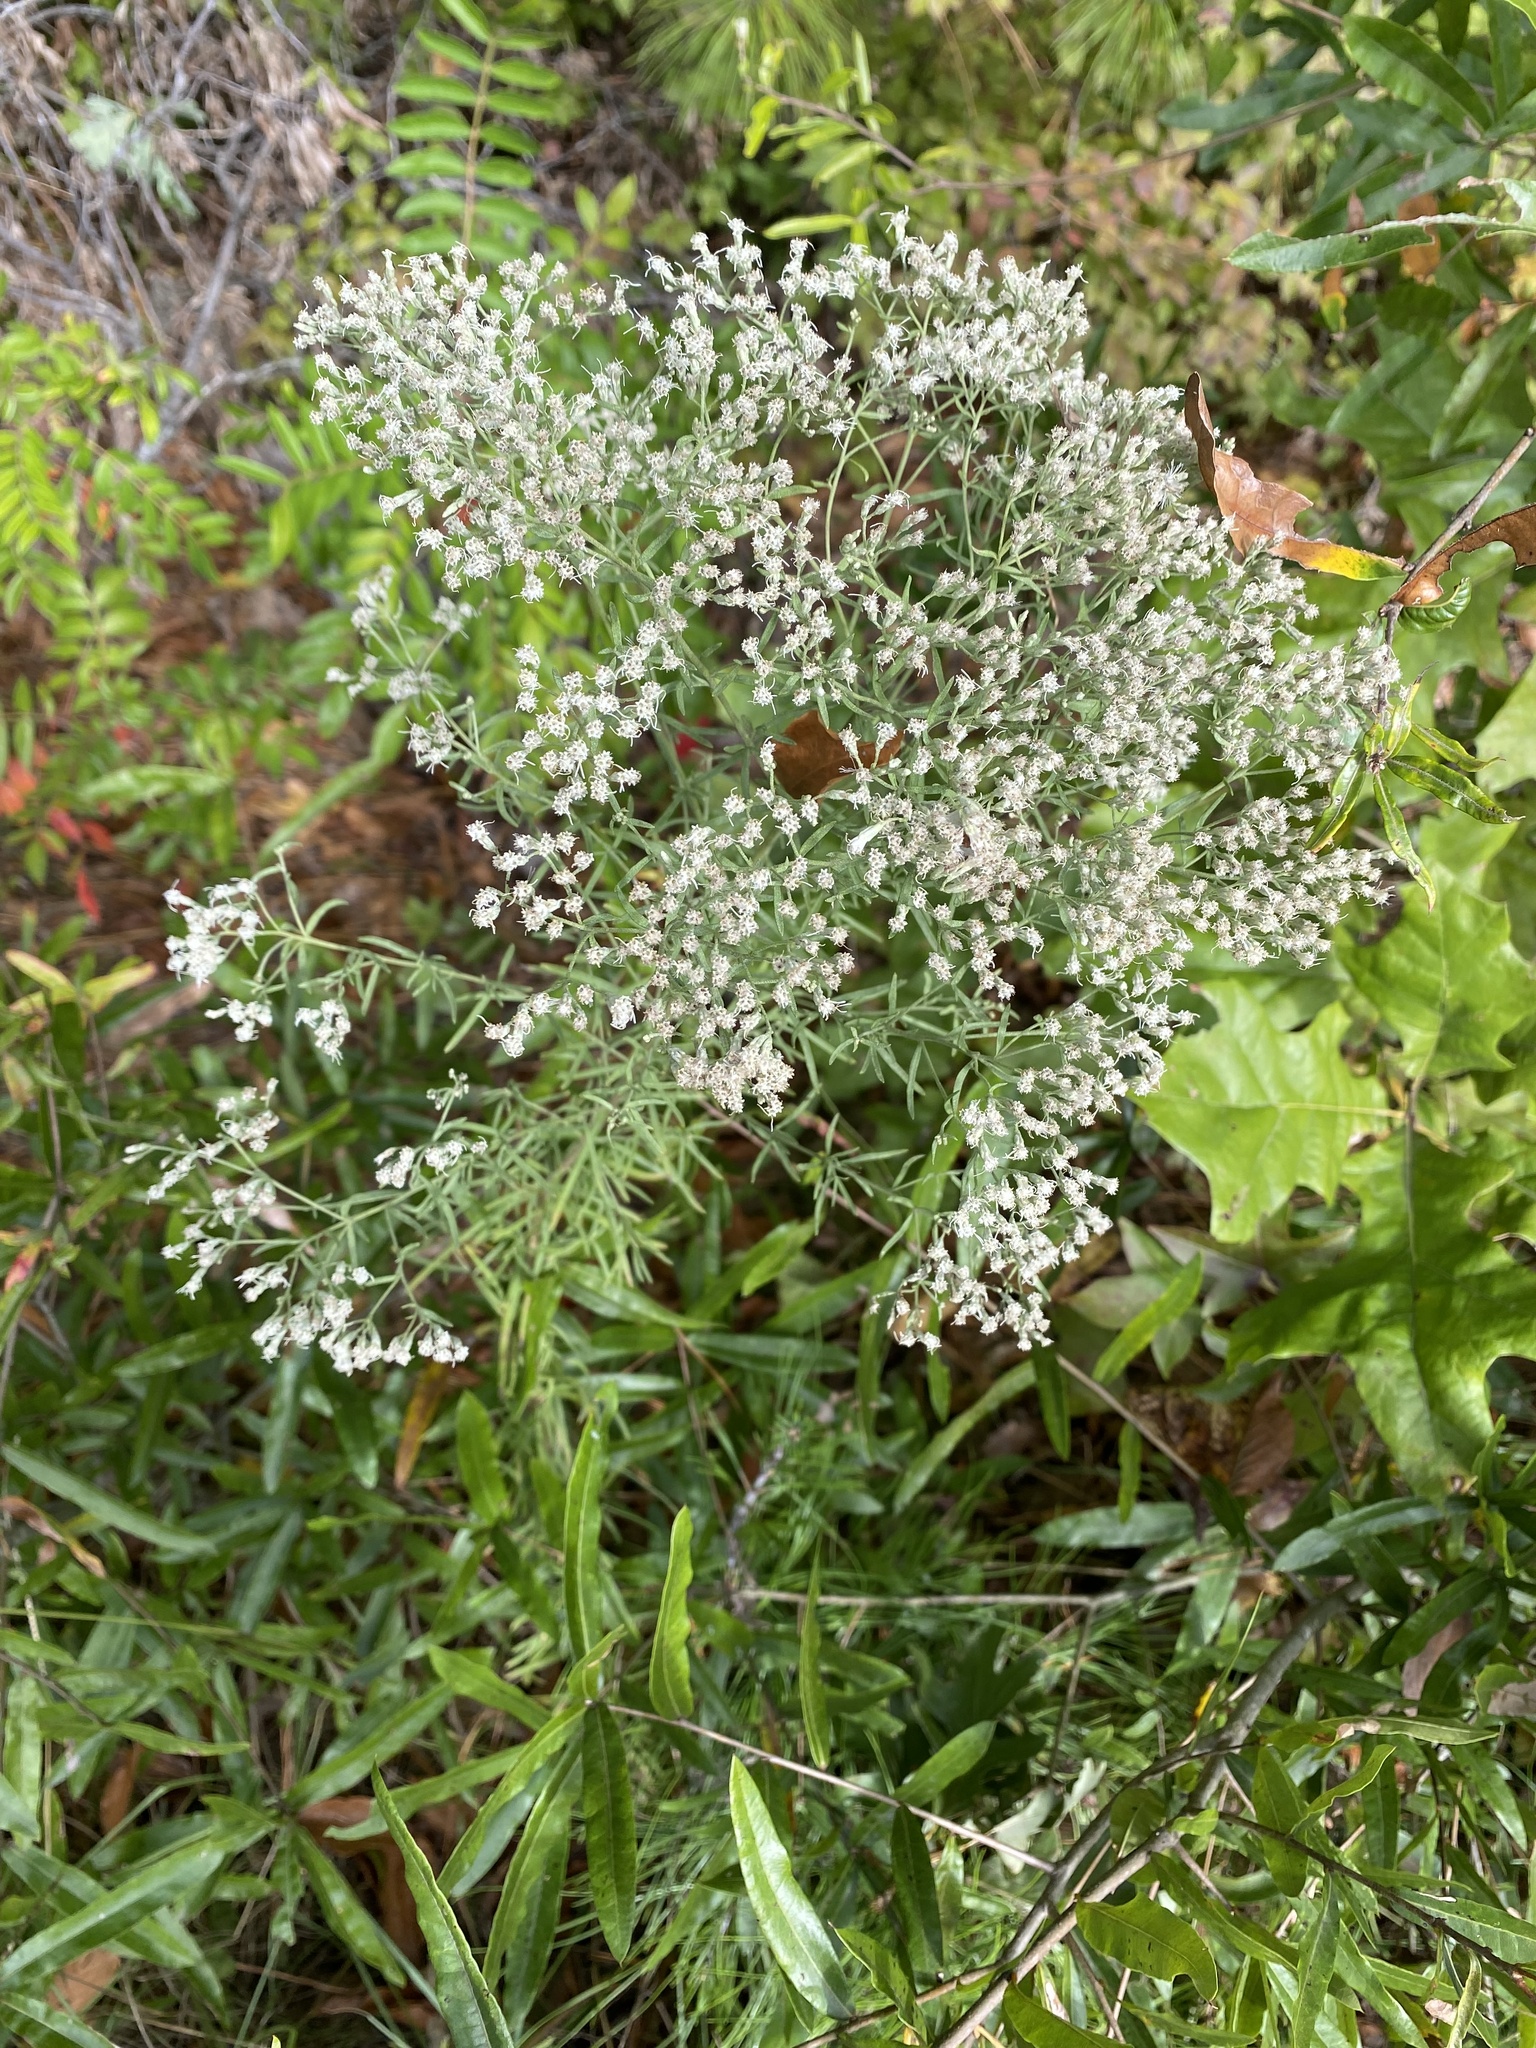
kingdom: Plantae
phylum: Tracheophyta
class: Magnoliopsida
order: Asterales
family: Asteraceae
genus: Eupatorium
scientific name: Eupatorium hyssopifolium
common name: Hyssop-leaf thoroughwort
